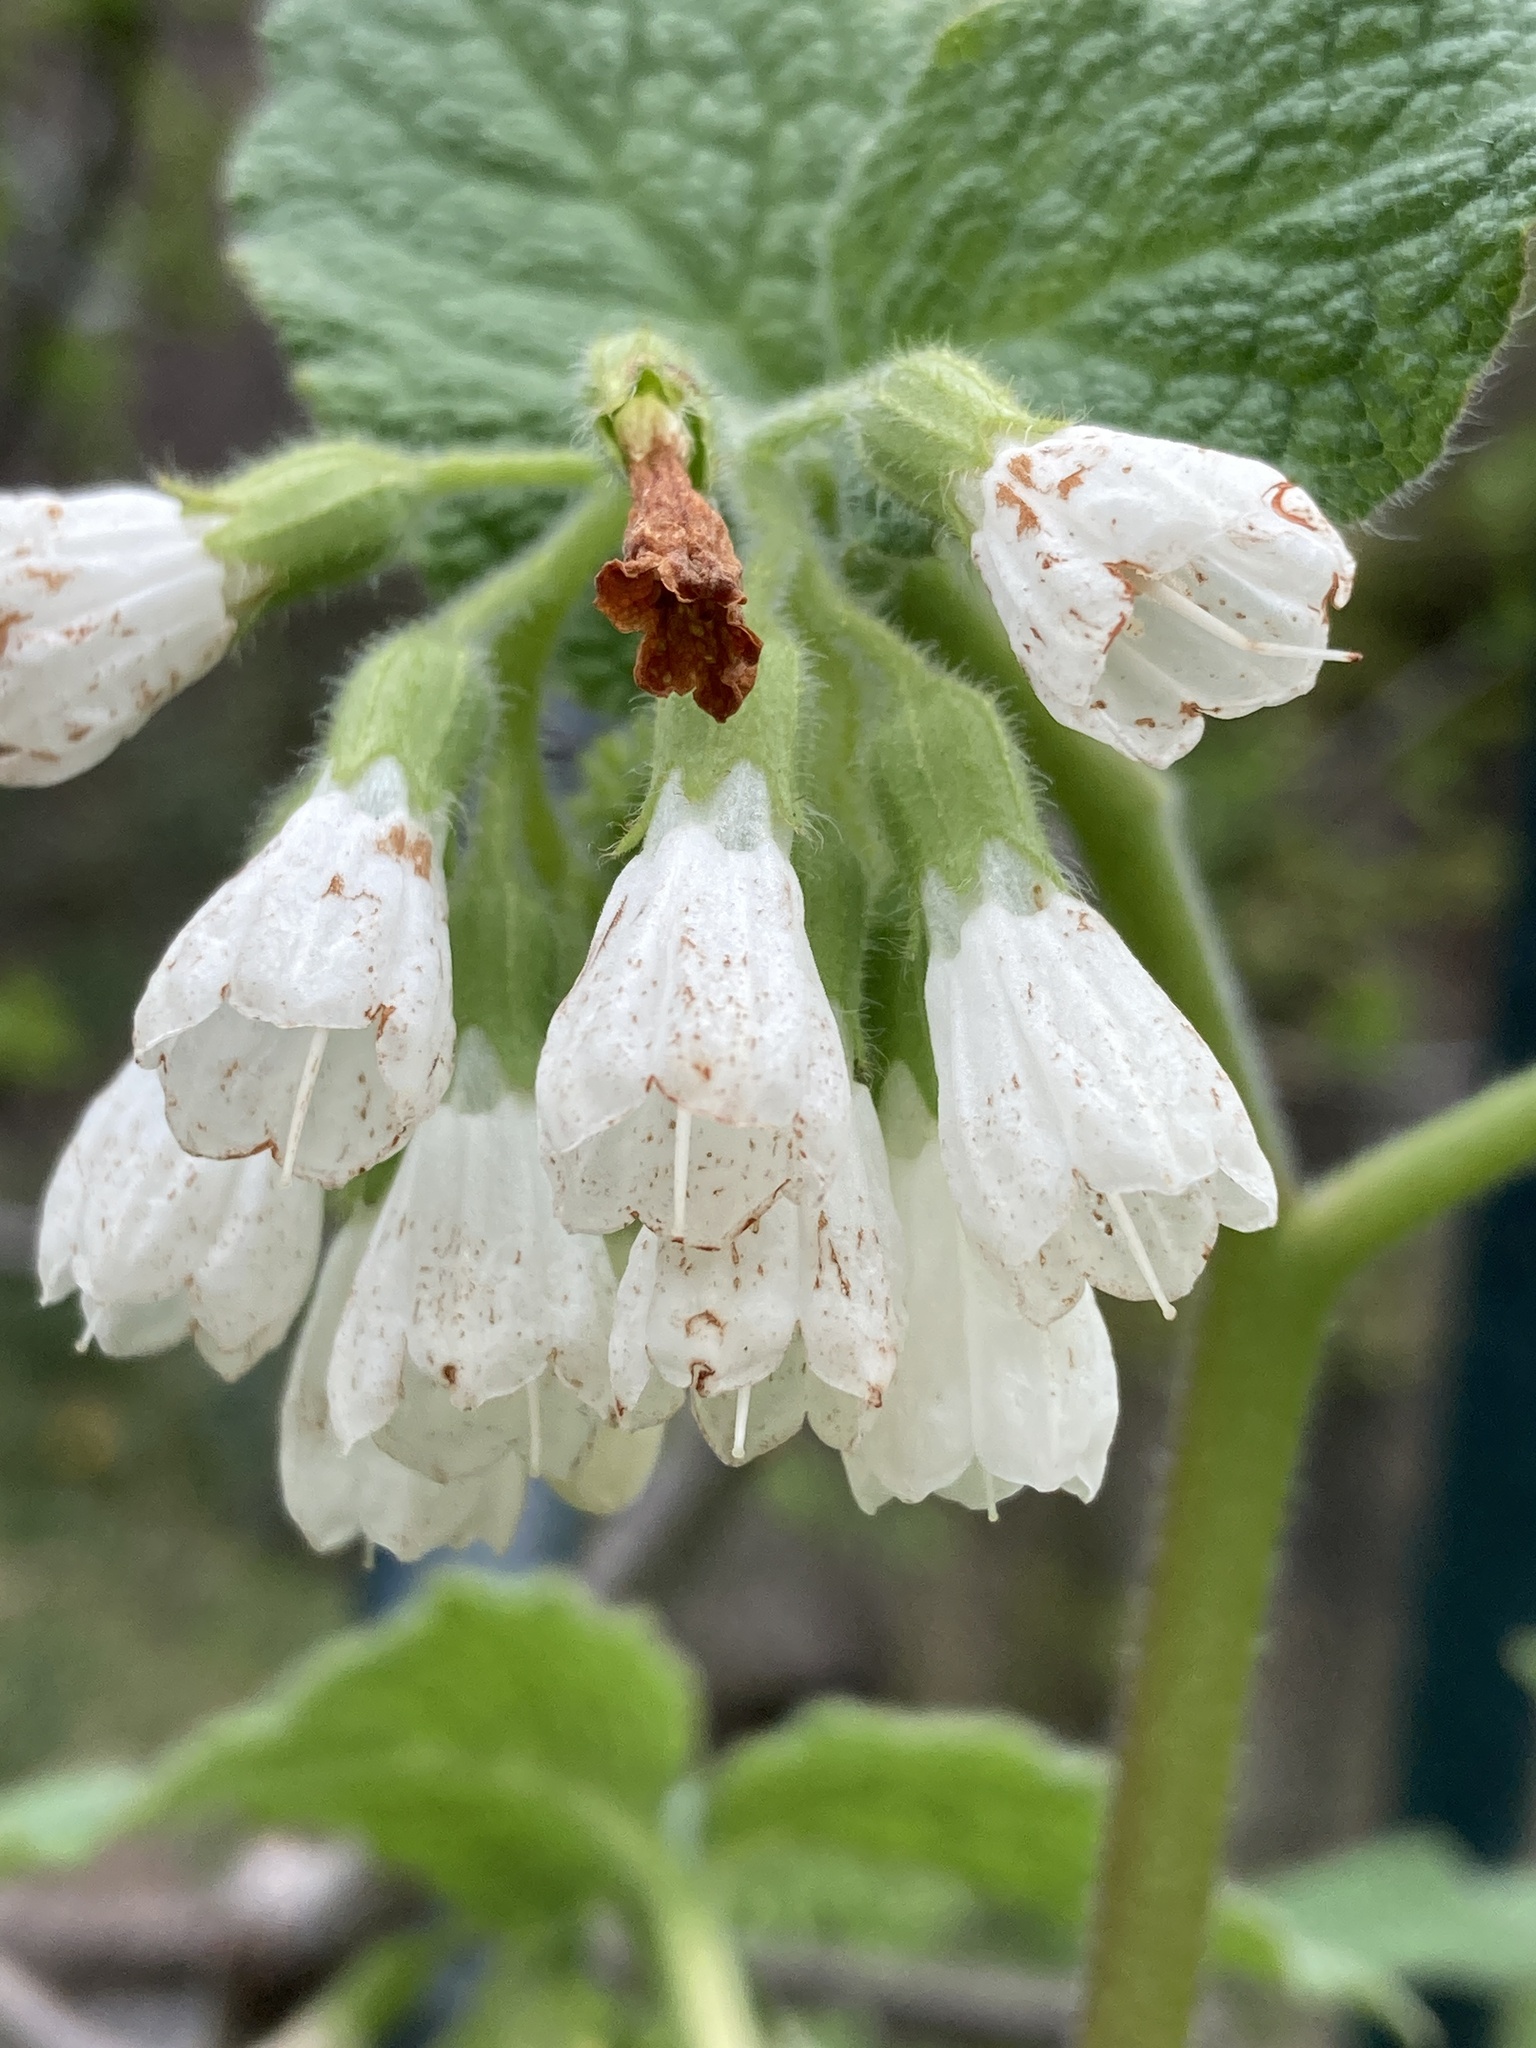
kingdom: Plantae
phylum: Tracheophyta
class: Magnoliopsida
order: Boraginales
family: Boraginaceae
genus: Symphytum
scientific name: Symphytum orientale
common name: White comfrey
